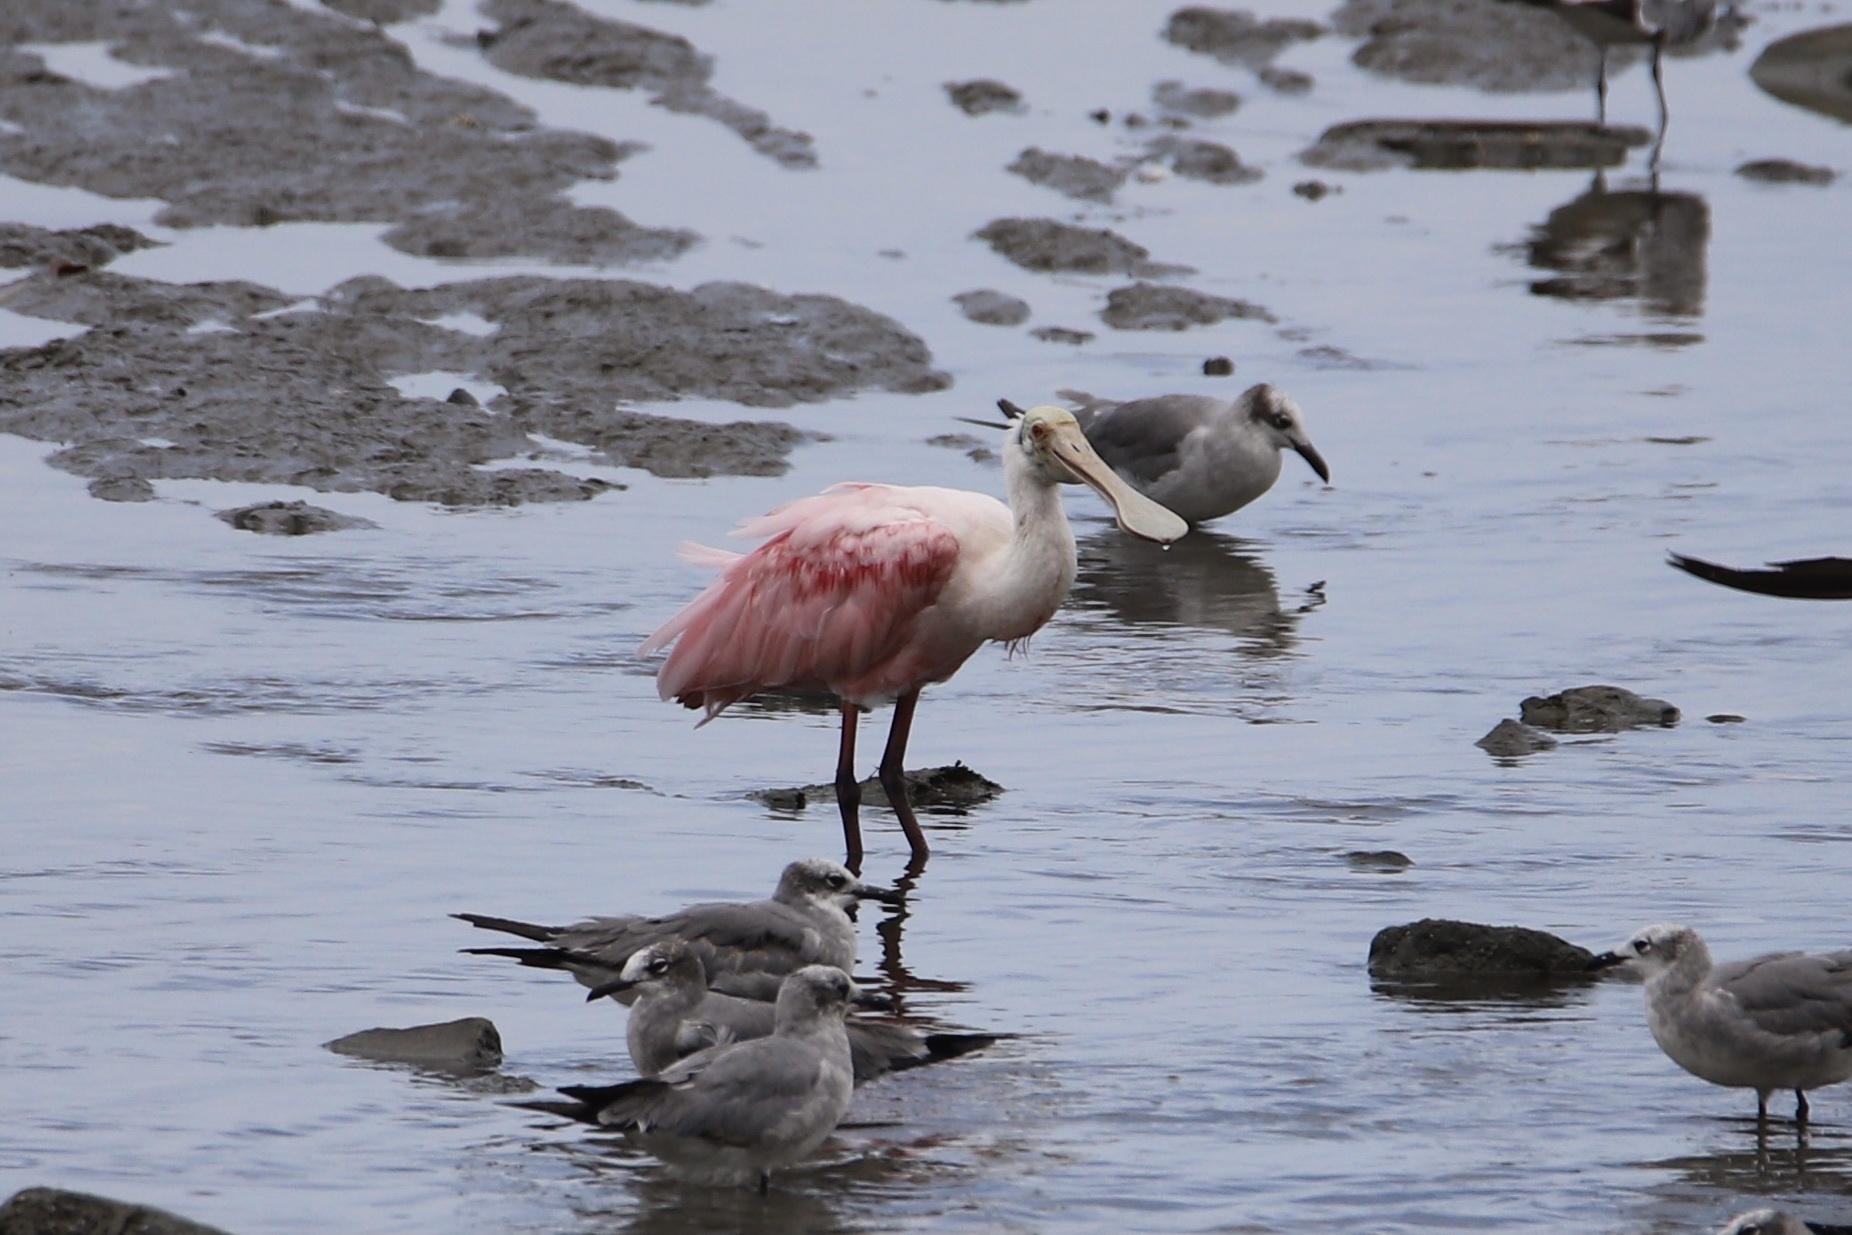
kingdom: Animalia
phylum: Chordata
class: Aves
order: Pelecaniformes
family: Threskiornithidae
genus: Platalea
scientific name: Platalea ajaja
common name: Roseate spoonbill
